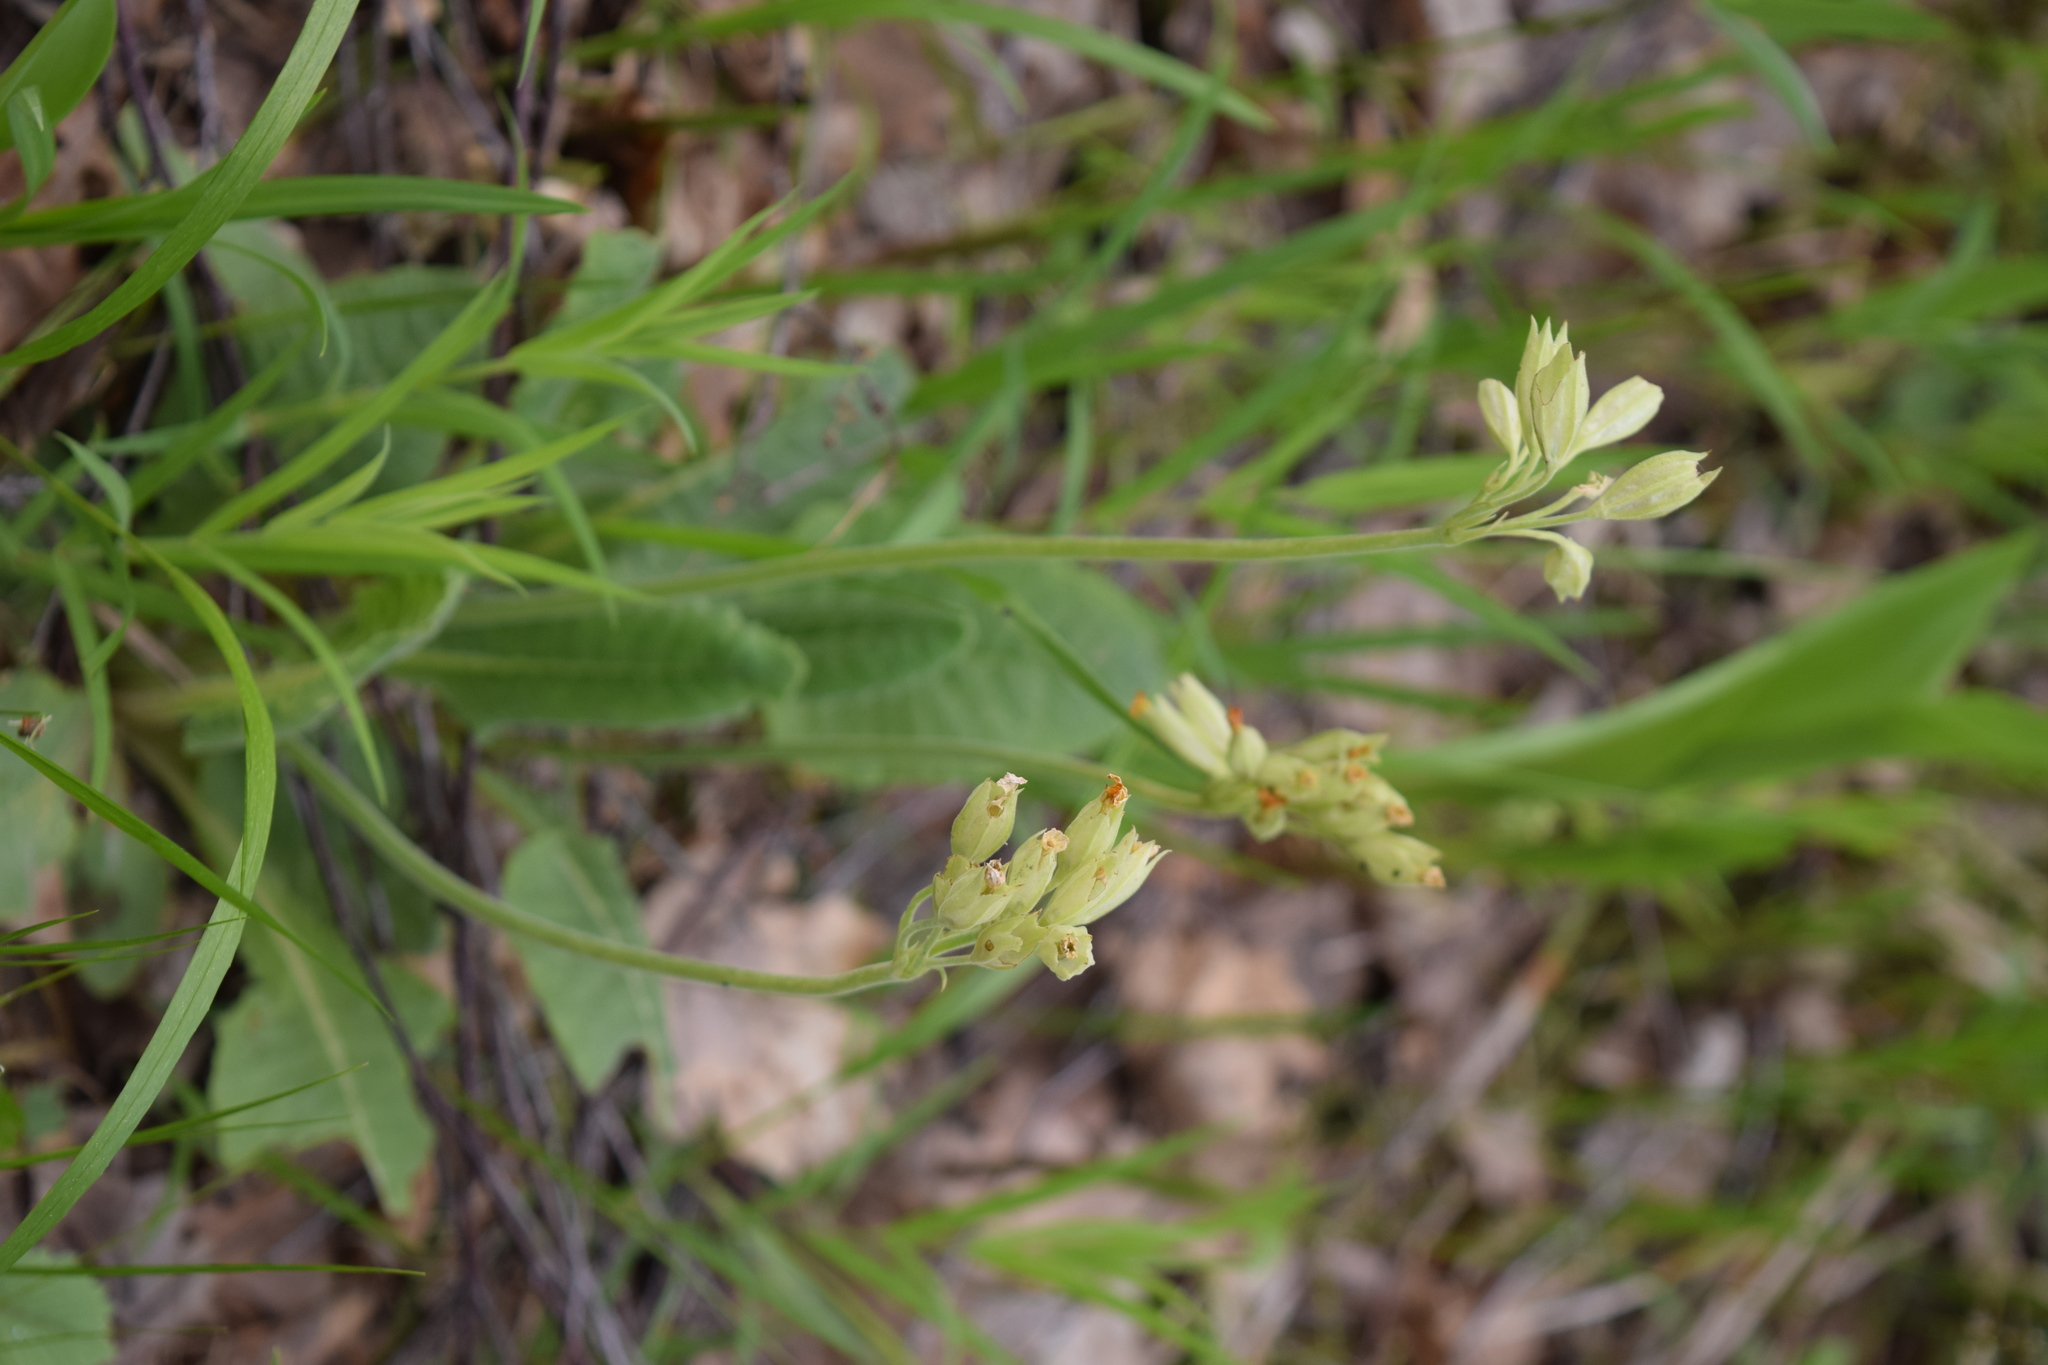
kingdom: Plantae
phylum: Tracheophyta
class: Magnoliopsida
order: Ericales
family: Primulaceae
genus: Primula
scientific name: Primula veris
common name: Cowslip
